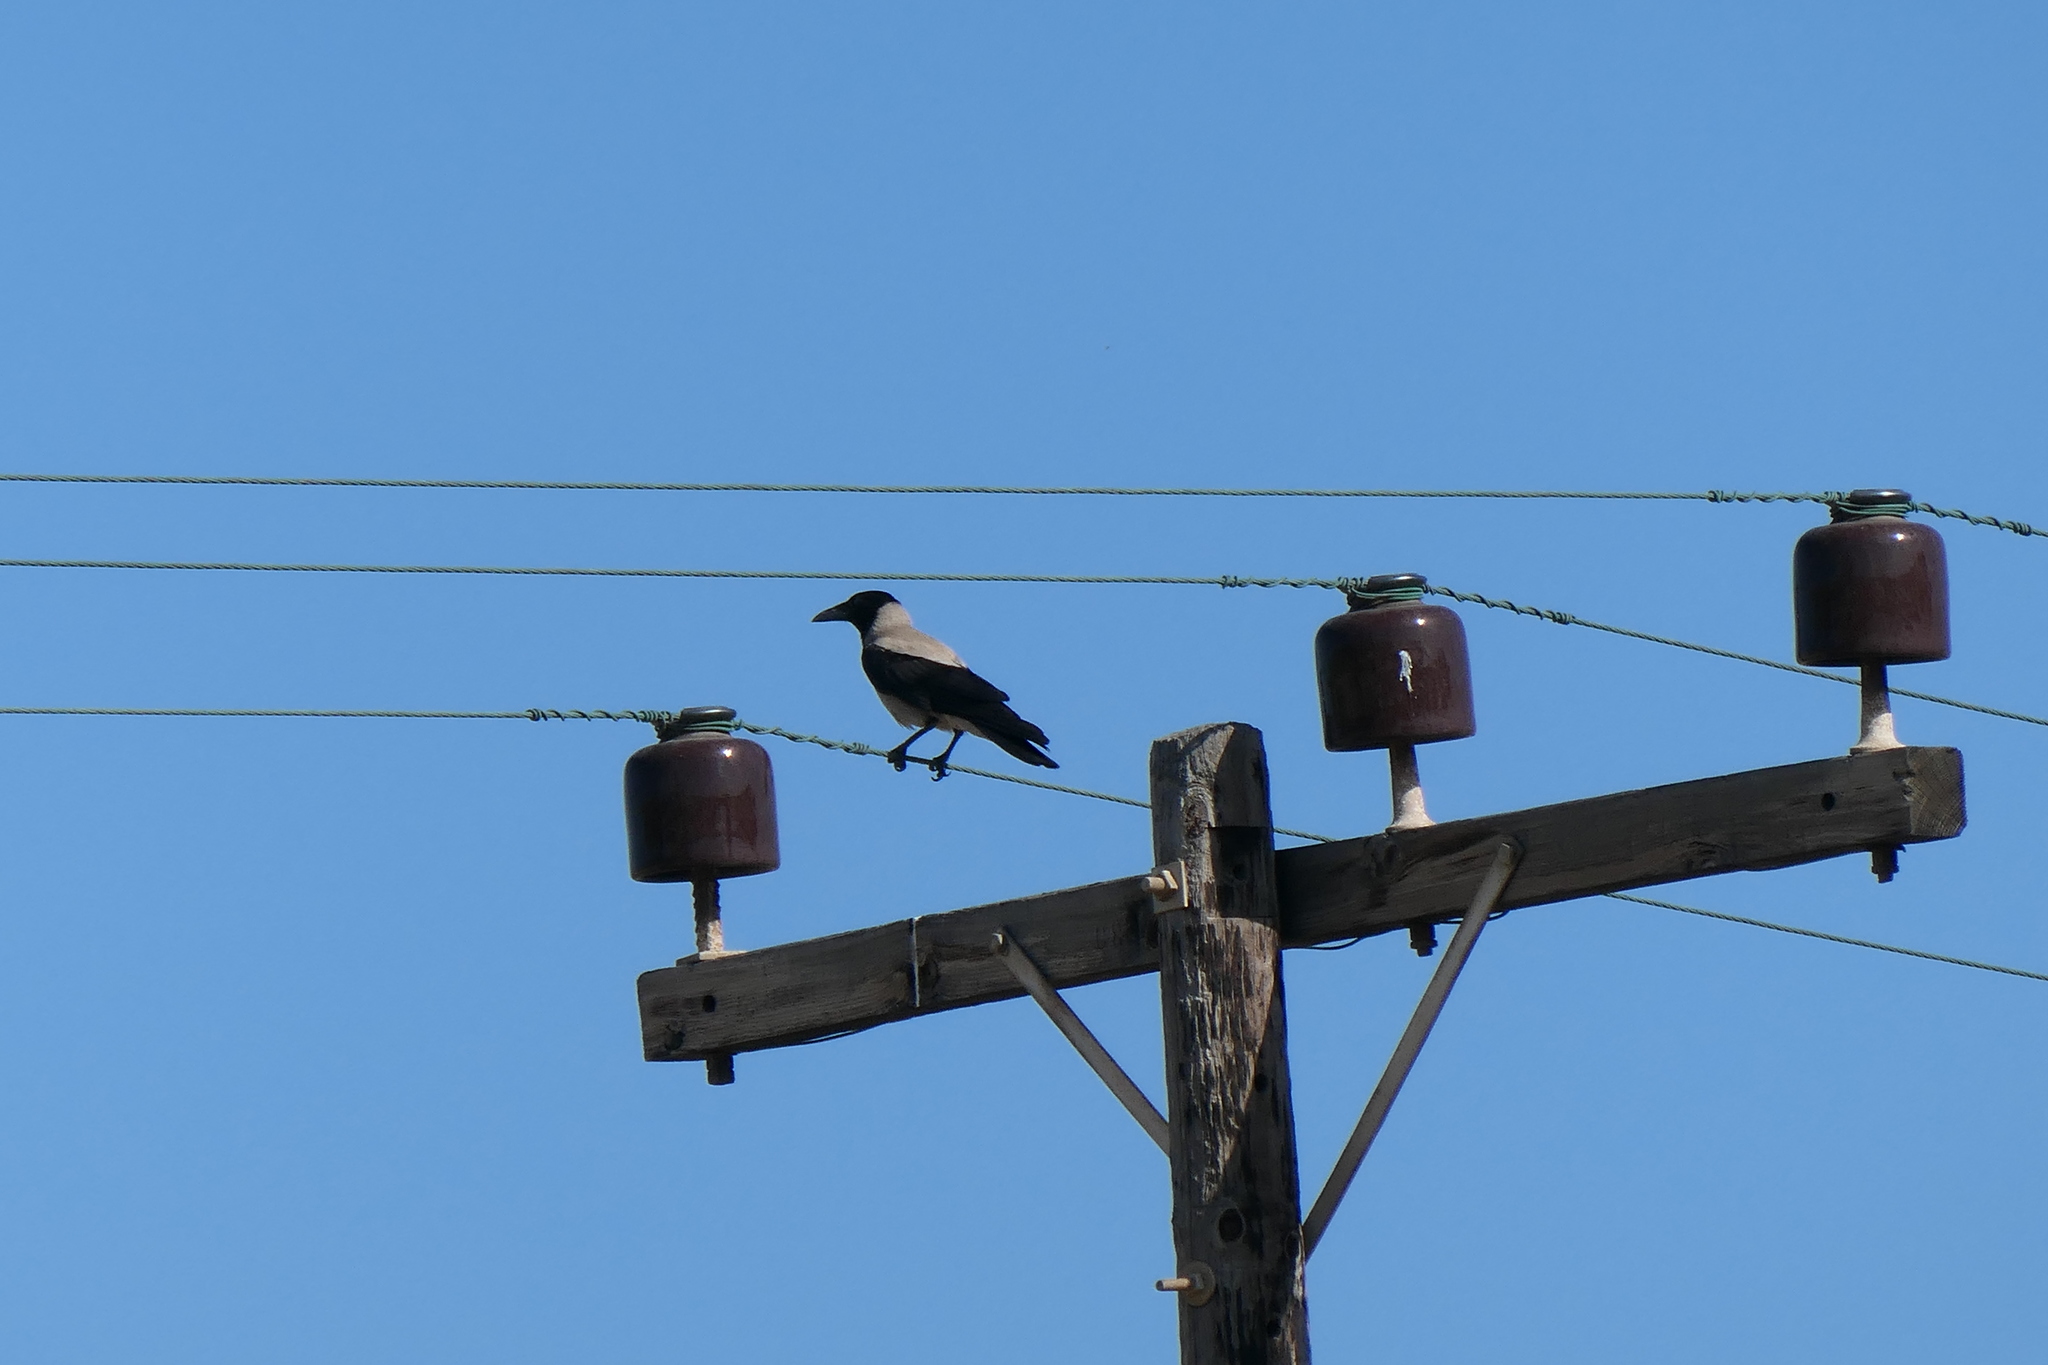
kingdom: Animalia
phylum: Chordata
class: Aves
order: Passeriformes
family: Corvidae
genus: Corvus
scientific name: Corvus cornix
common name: Hooded crow
